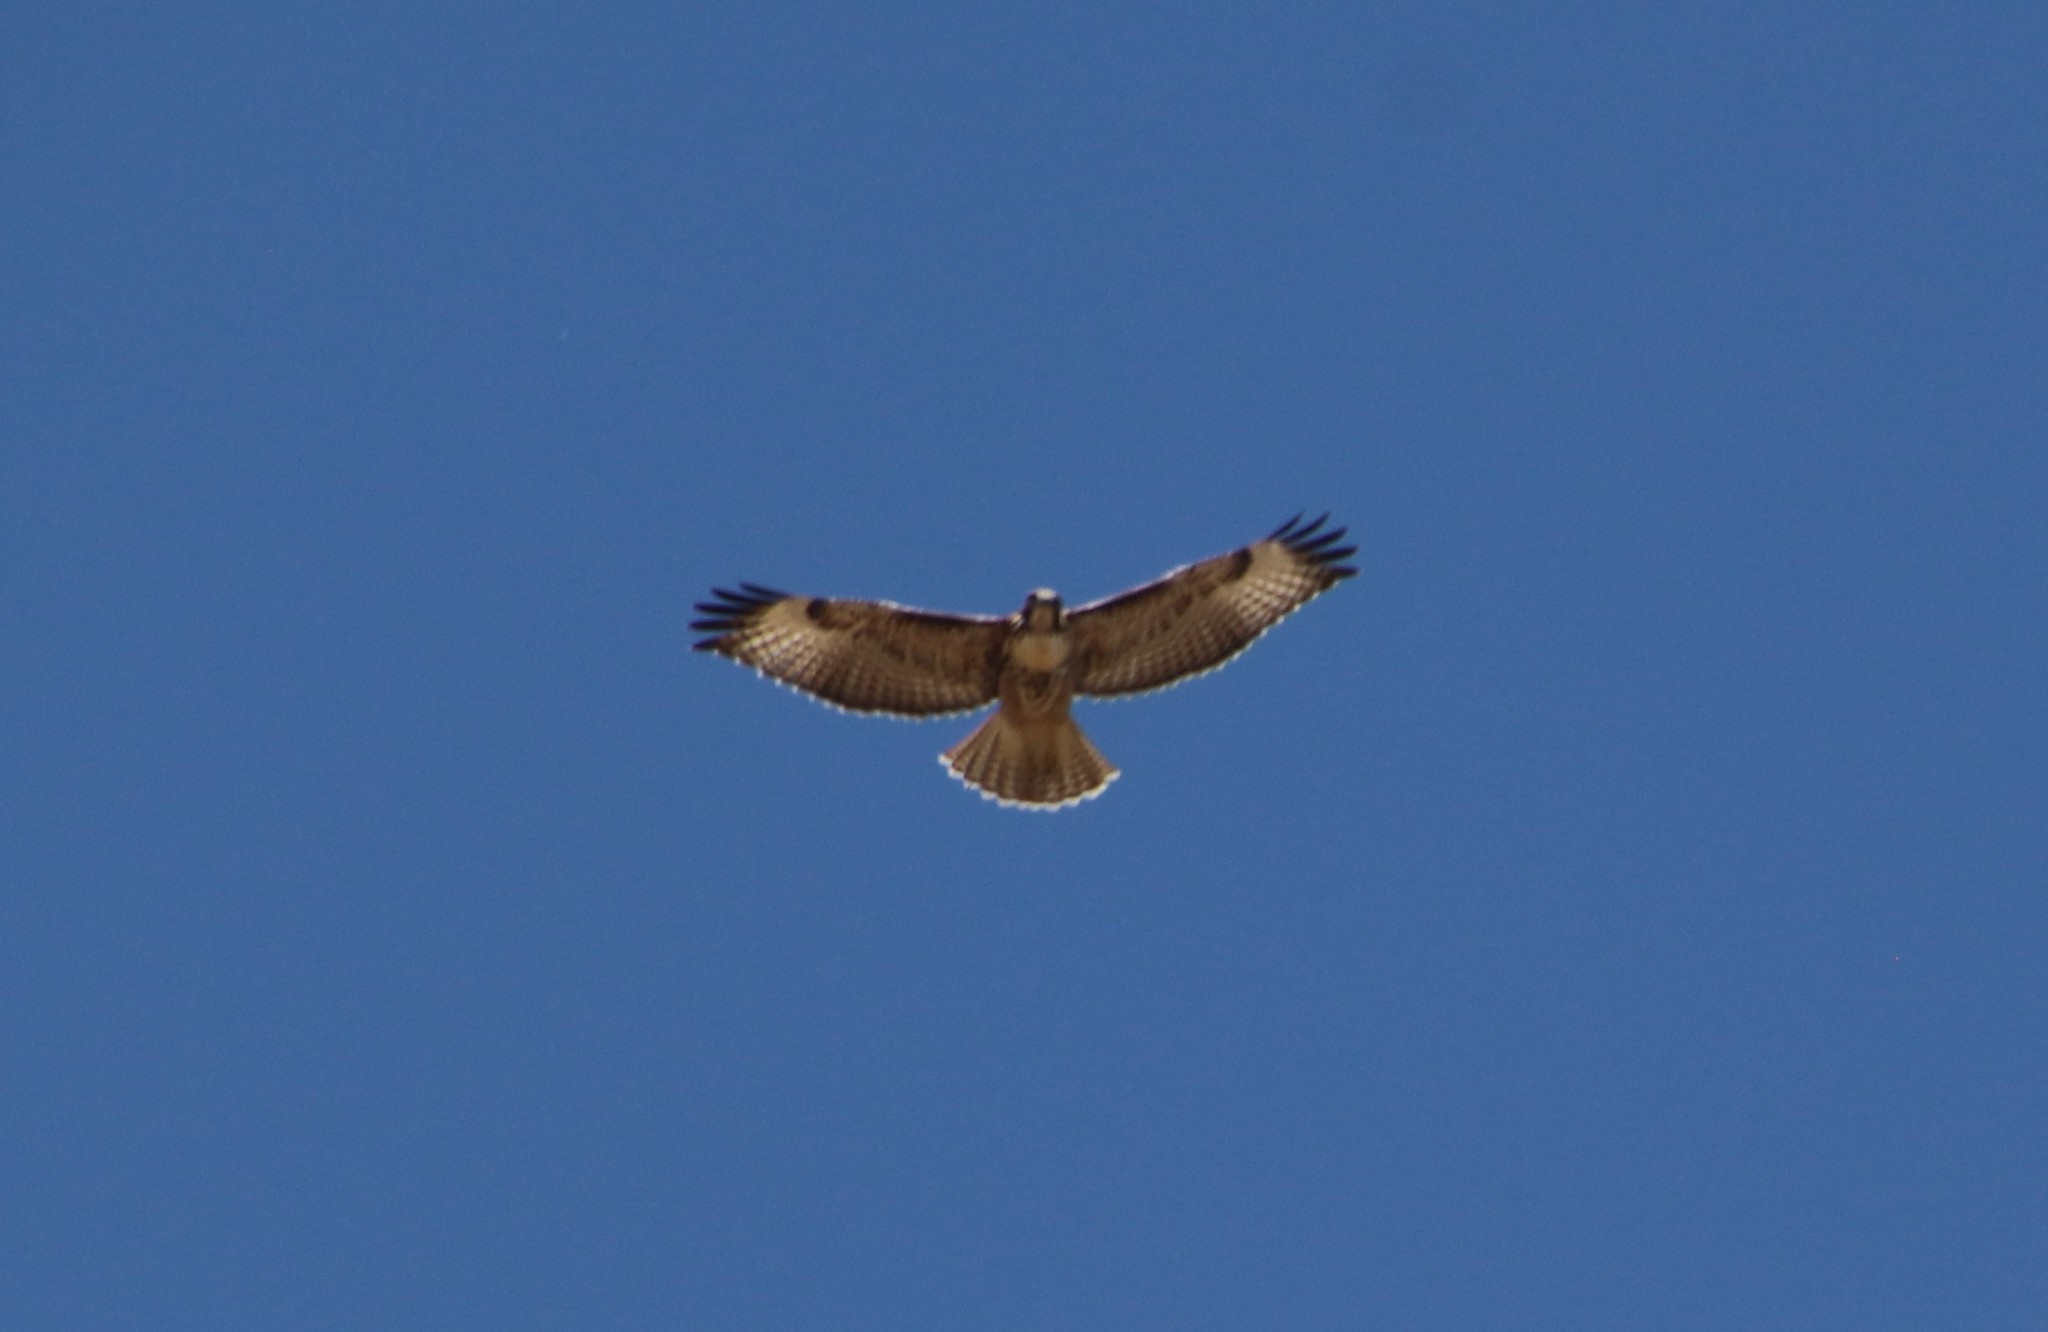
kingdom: Animalia
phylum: Chordata
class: Aves
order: Accipitriformes
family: Accipitridae
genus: Buteo
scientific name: Buteo jamaicensis
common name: Red-tailed hawk
